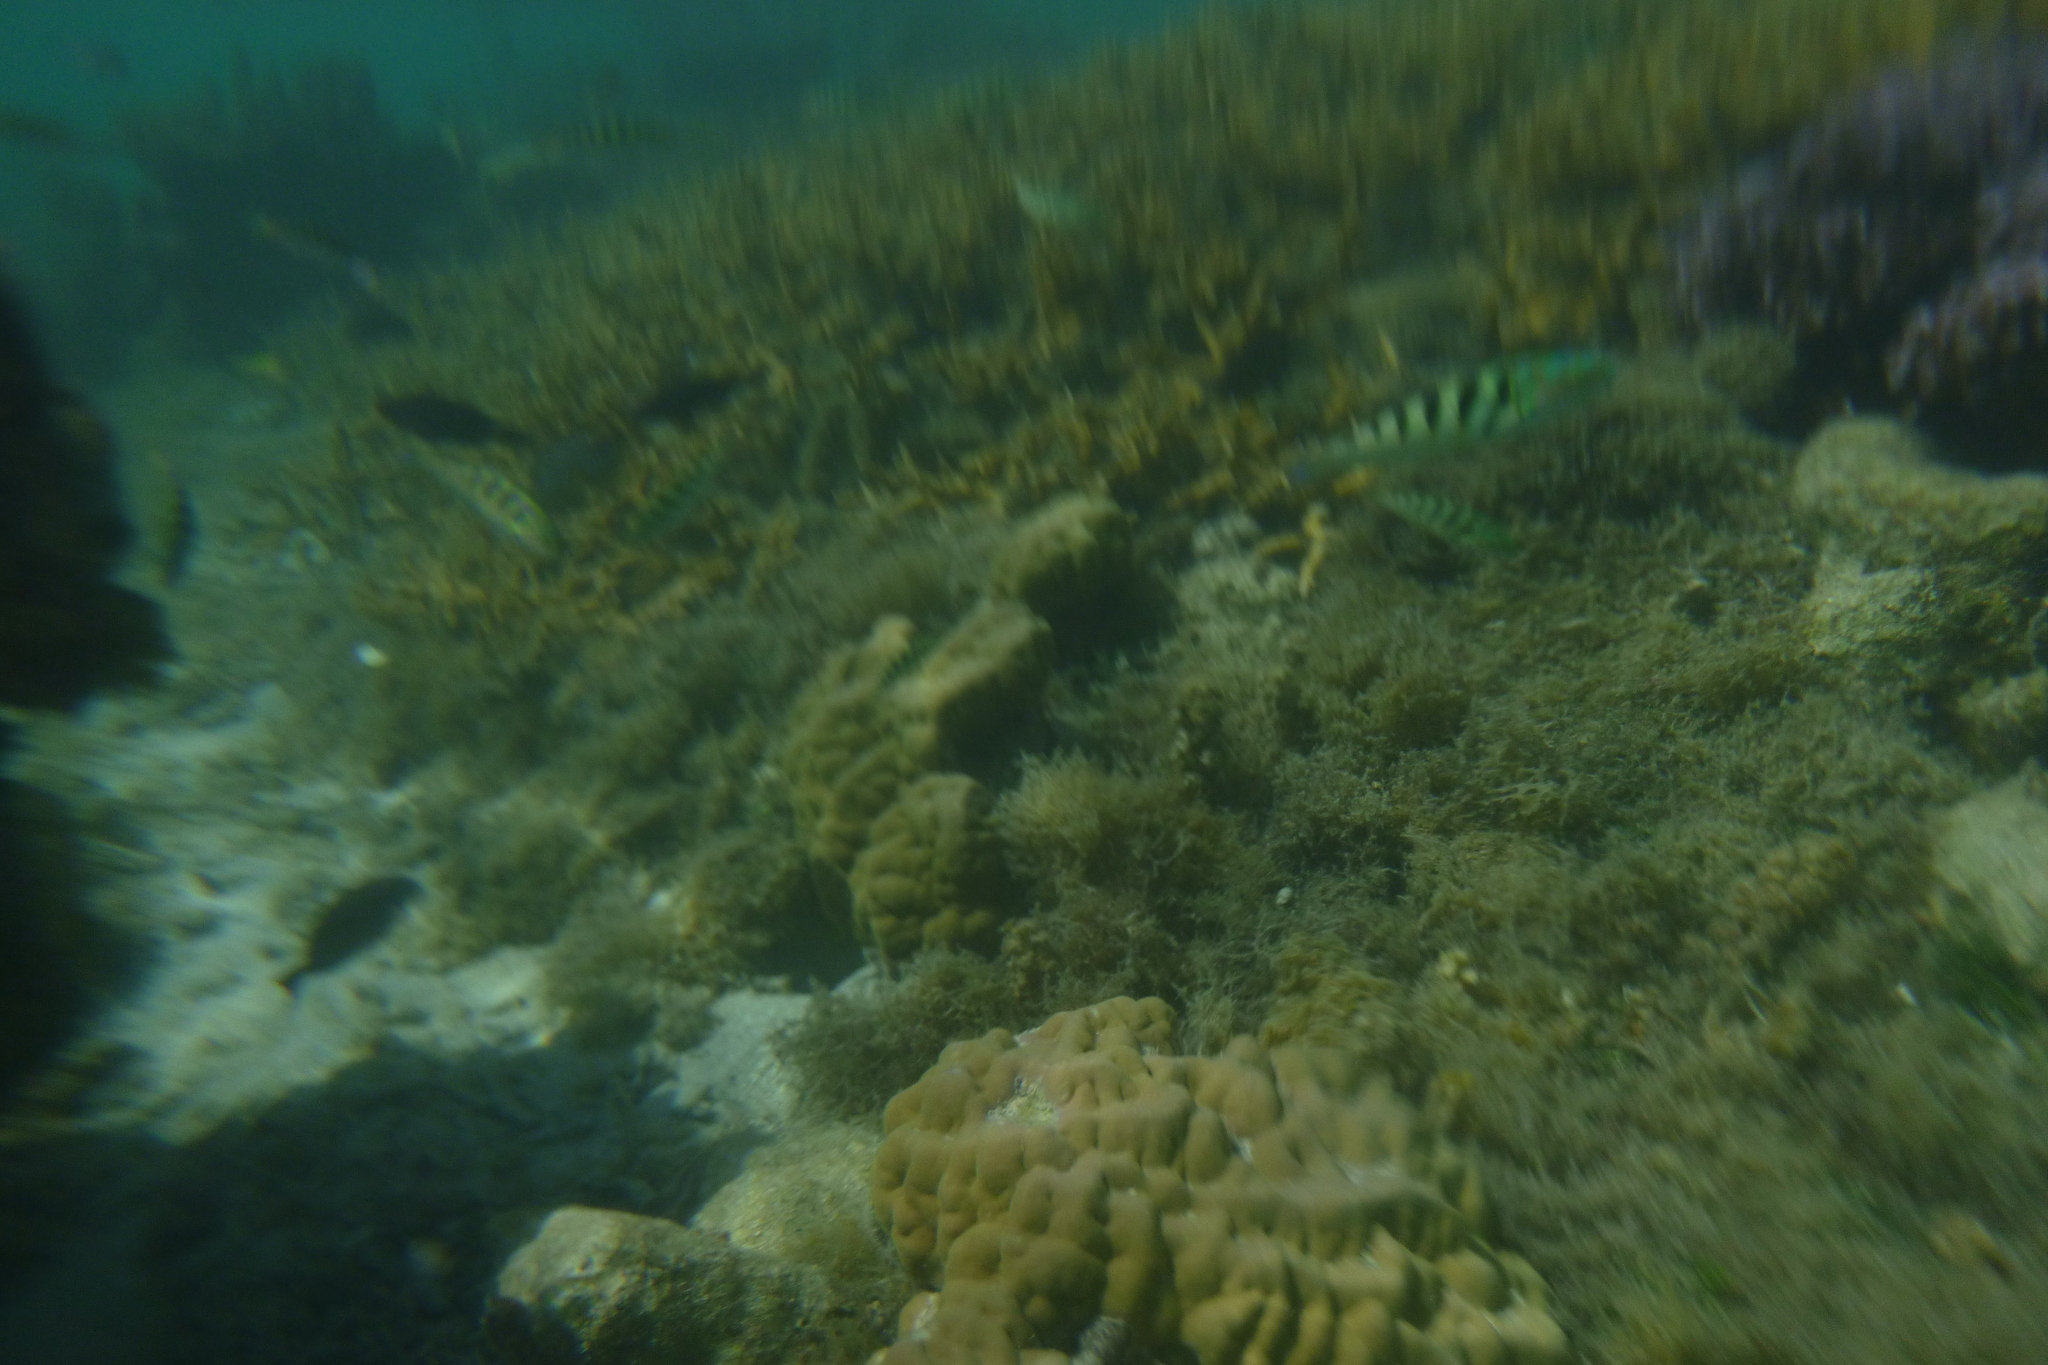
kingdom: Animalia
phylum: Chordata
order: Perciformes
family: Labridae
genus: Thalassoma
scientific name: Thalassoma hardwicke
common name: Sixbar wrasse
